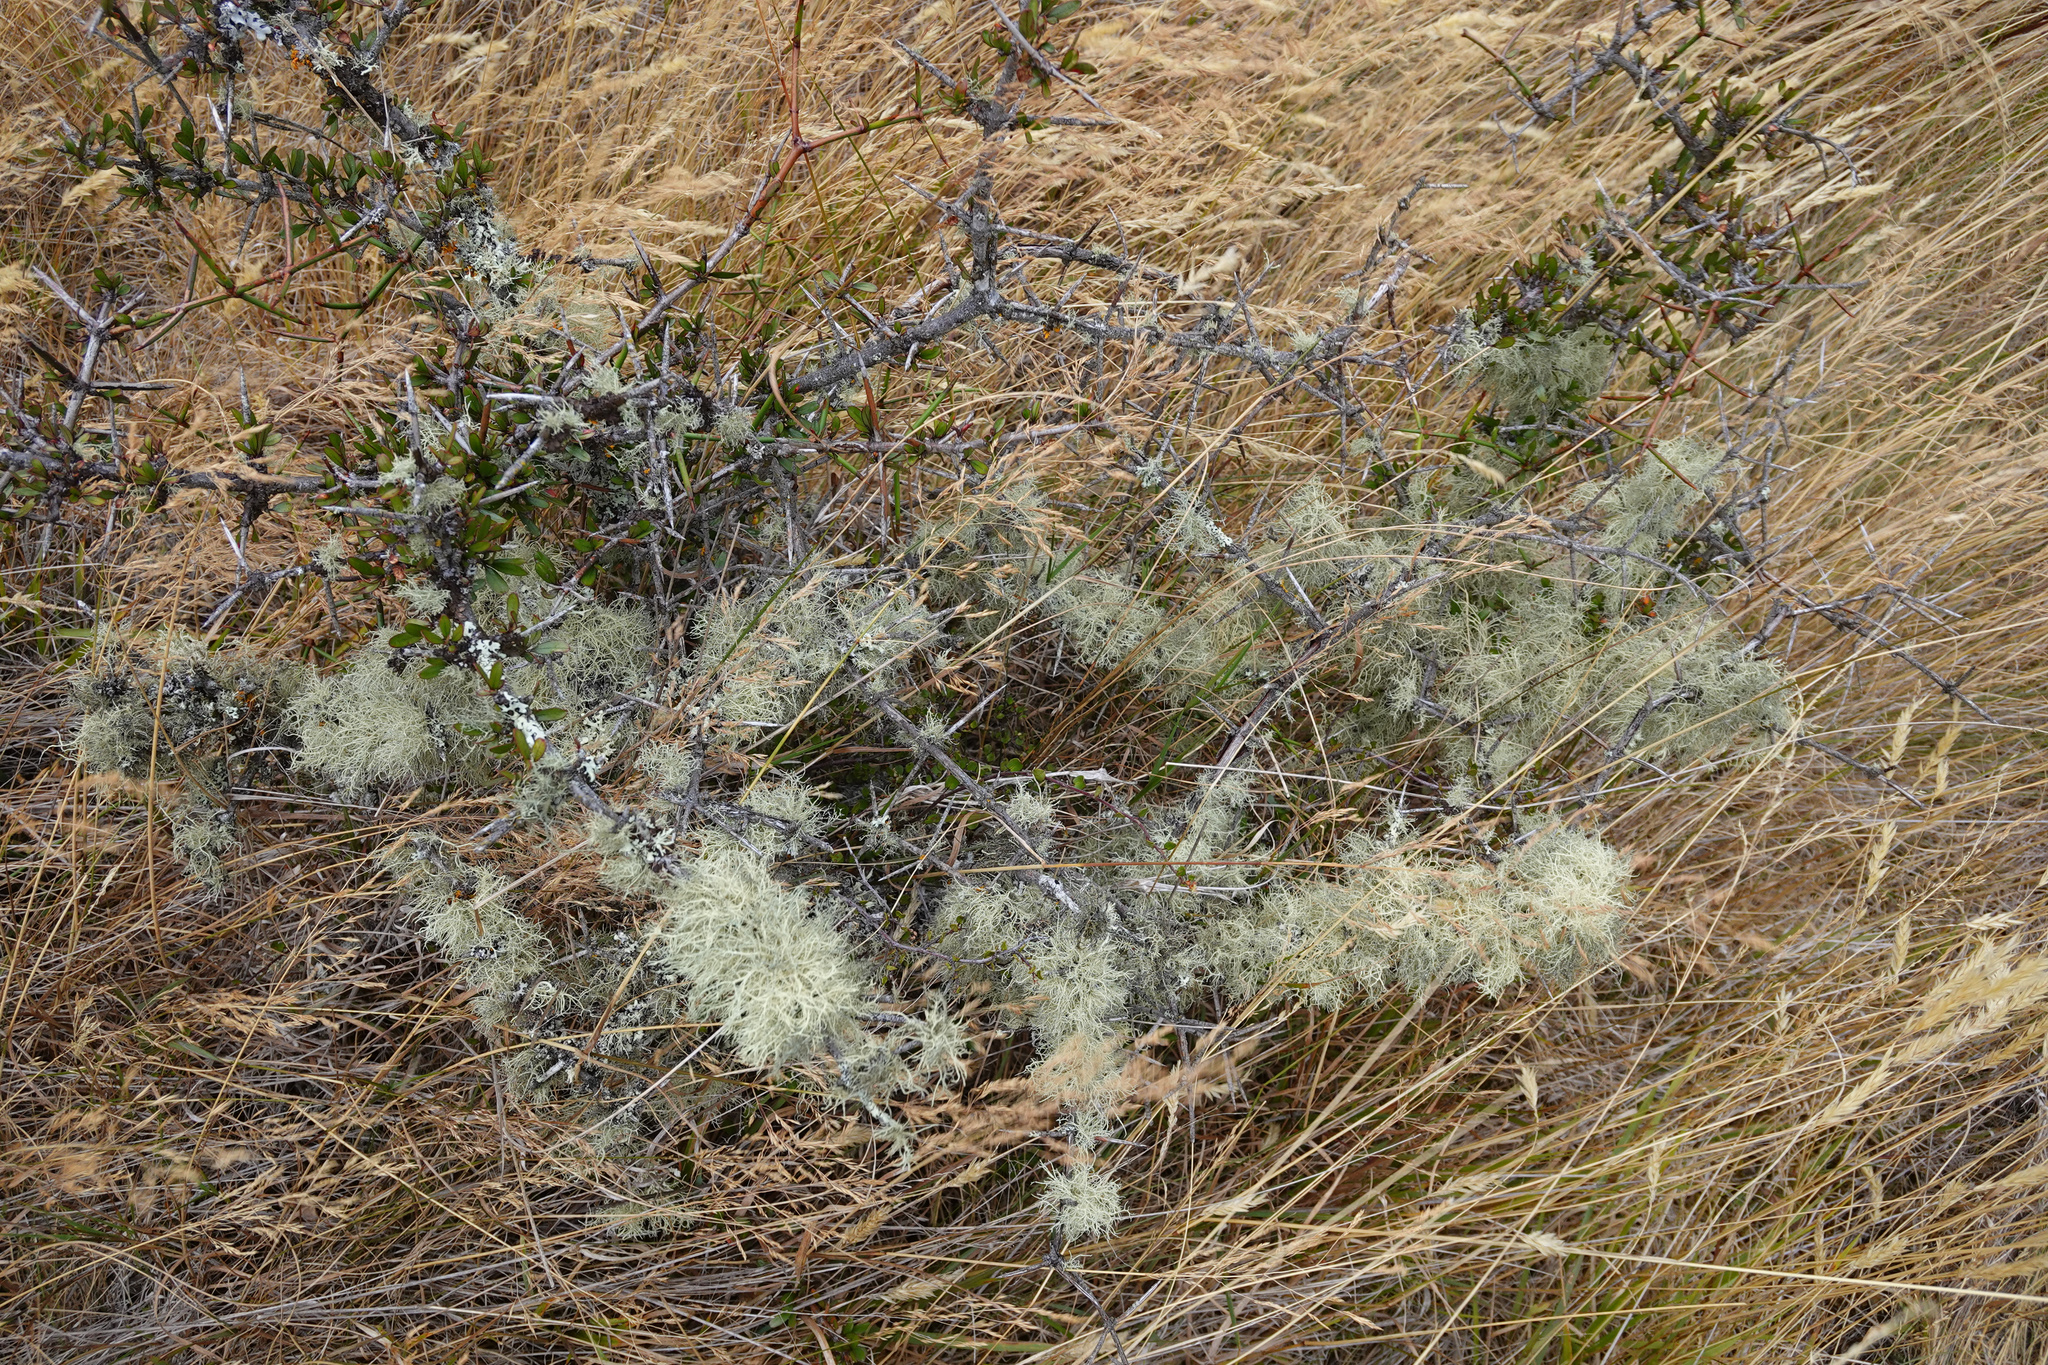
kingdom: Plantae
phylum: Tracheophyta
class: Magnoliopsida
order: Rosales
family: Rhamnaceae
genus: Discaria
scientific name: Discaria toumatou
